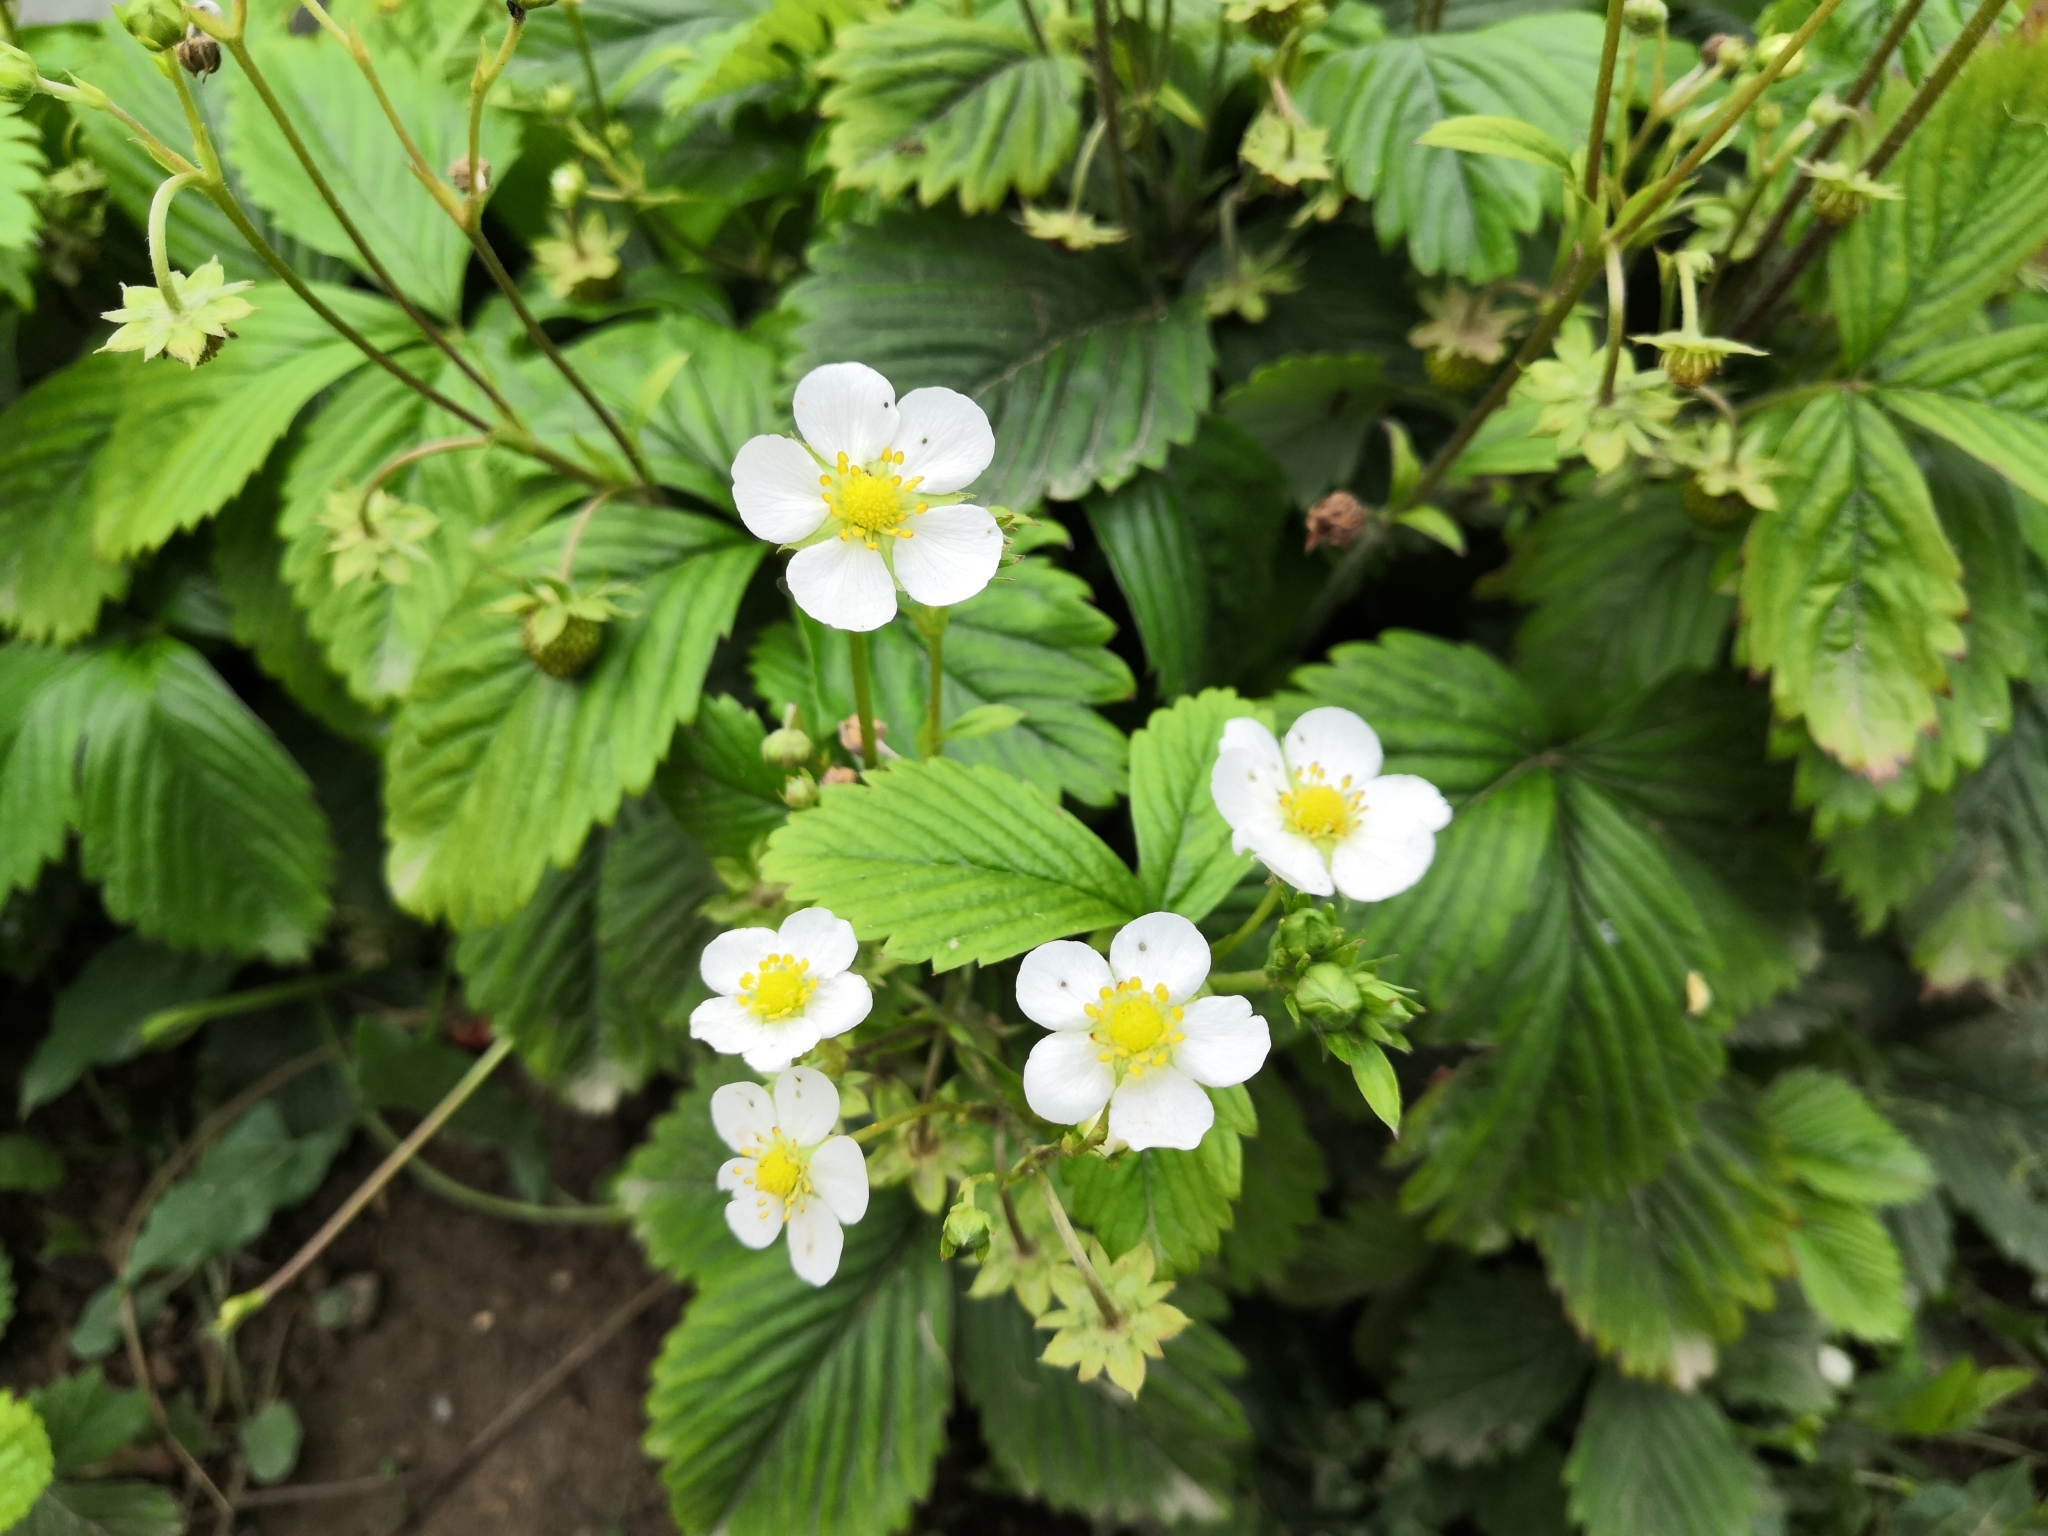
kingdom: Plantae
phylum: Tracheophyta
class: Magnoliopsida
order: Rosales
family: Rosaceae
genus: Fragaria
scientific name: Fragaria vesca
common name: Wild strawberry
